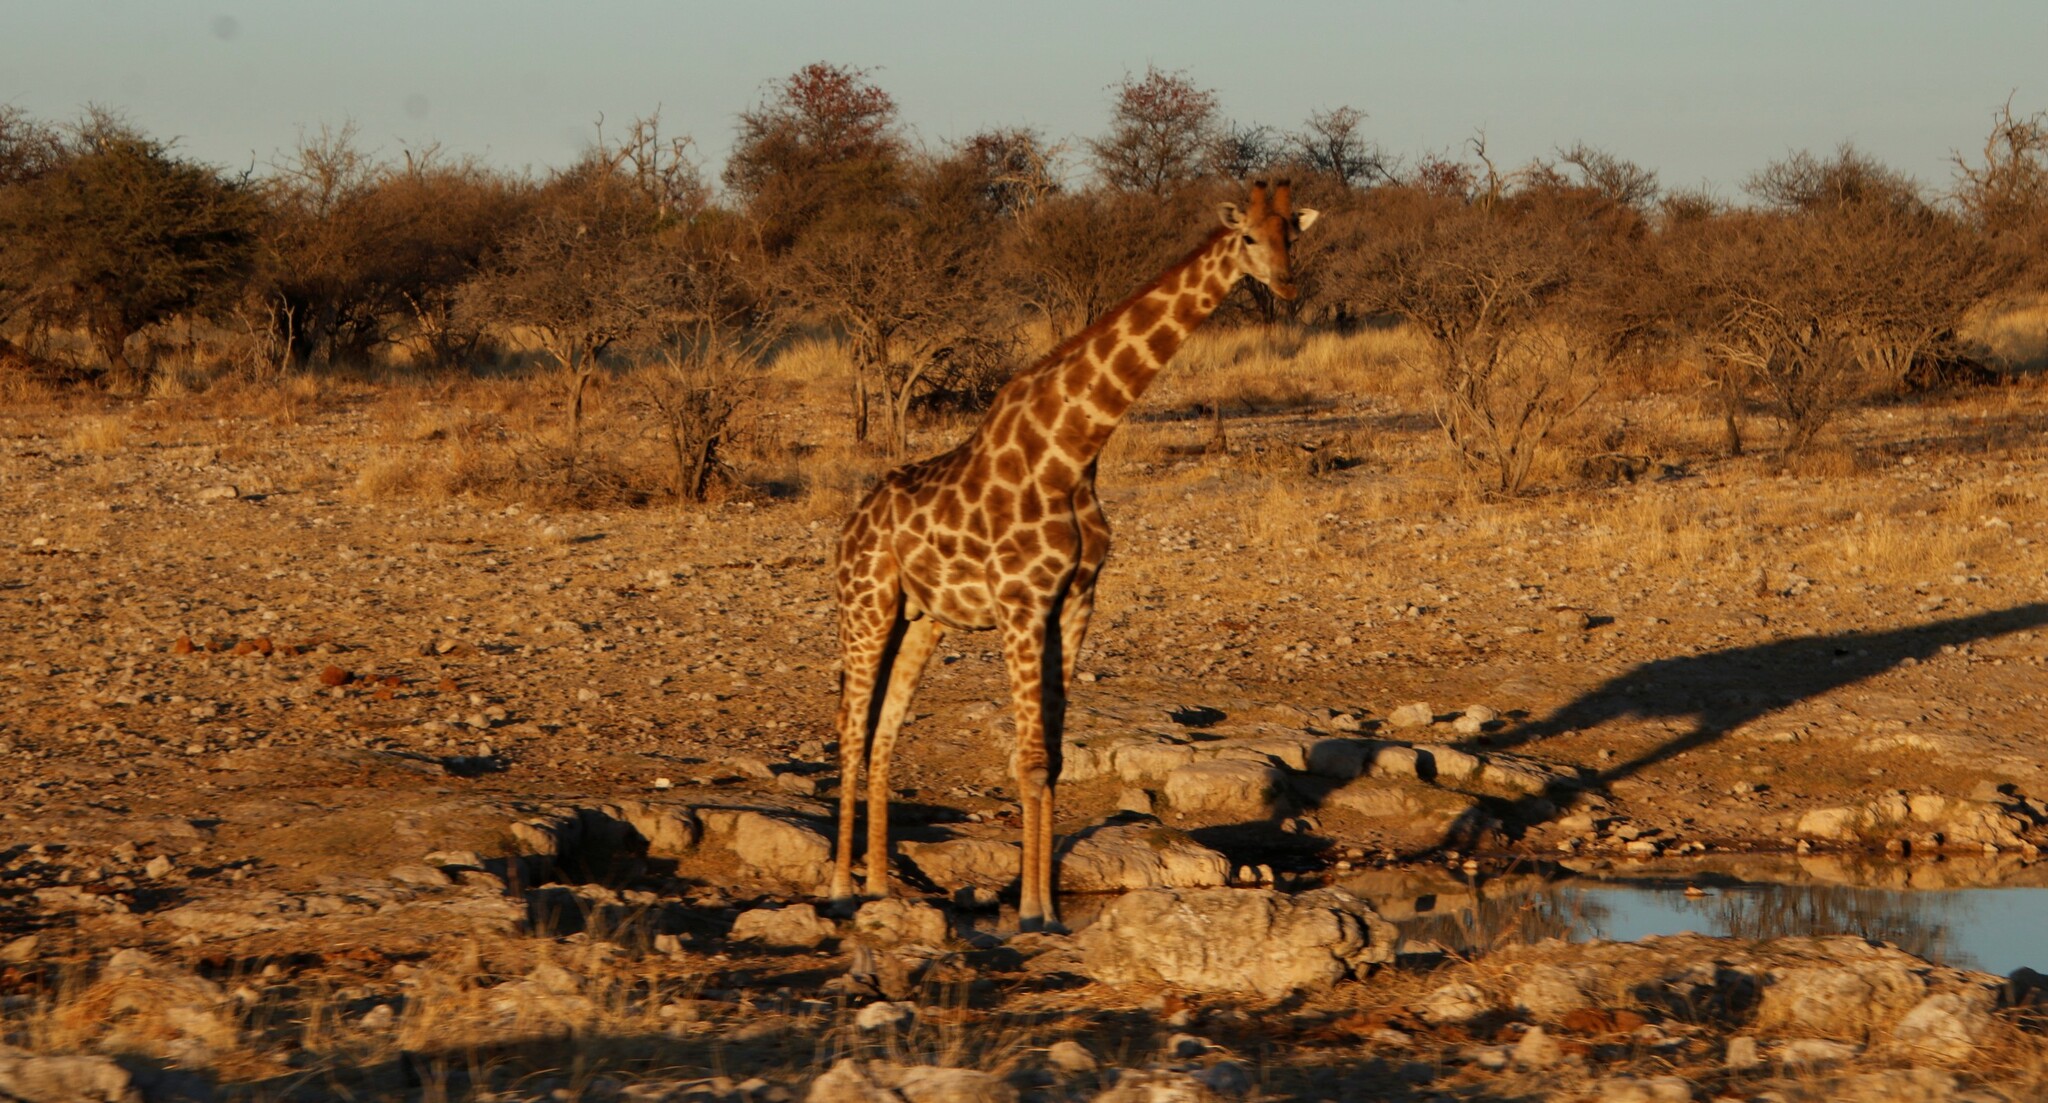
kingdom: Animalia
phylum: Chordata
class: Mammalia
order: Artiodactyla
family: Giraffidae
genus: Giraffa
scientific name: Giraffa giraffa
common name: Southern giraffe
